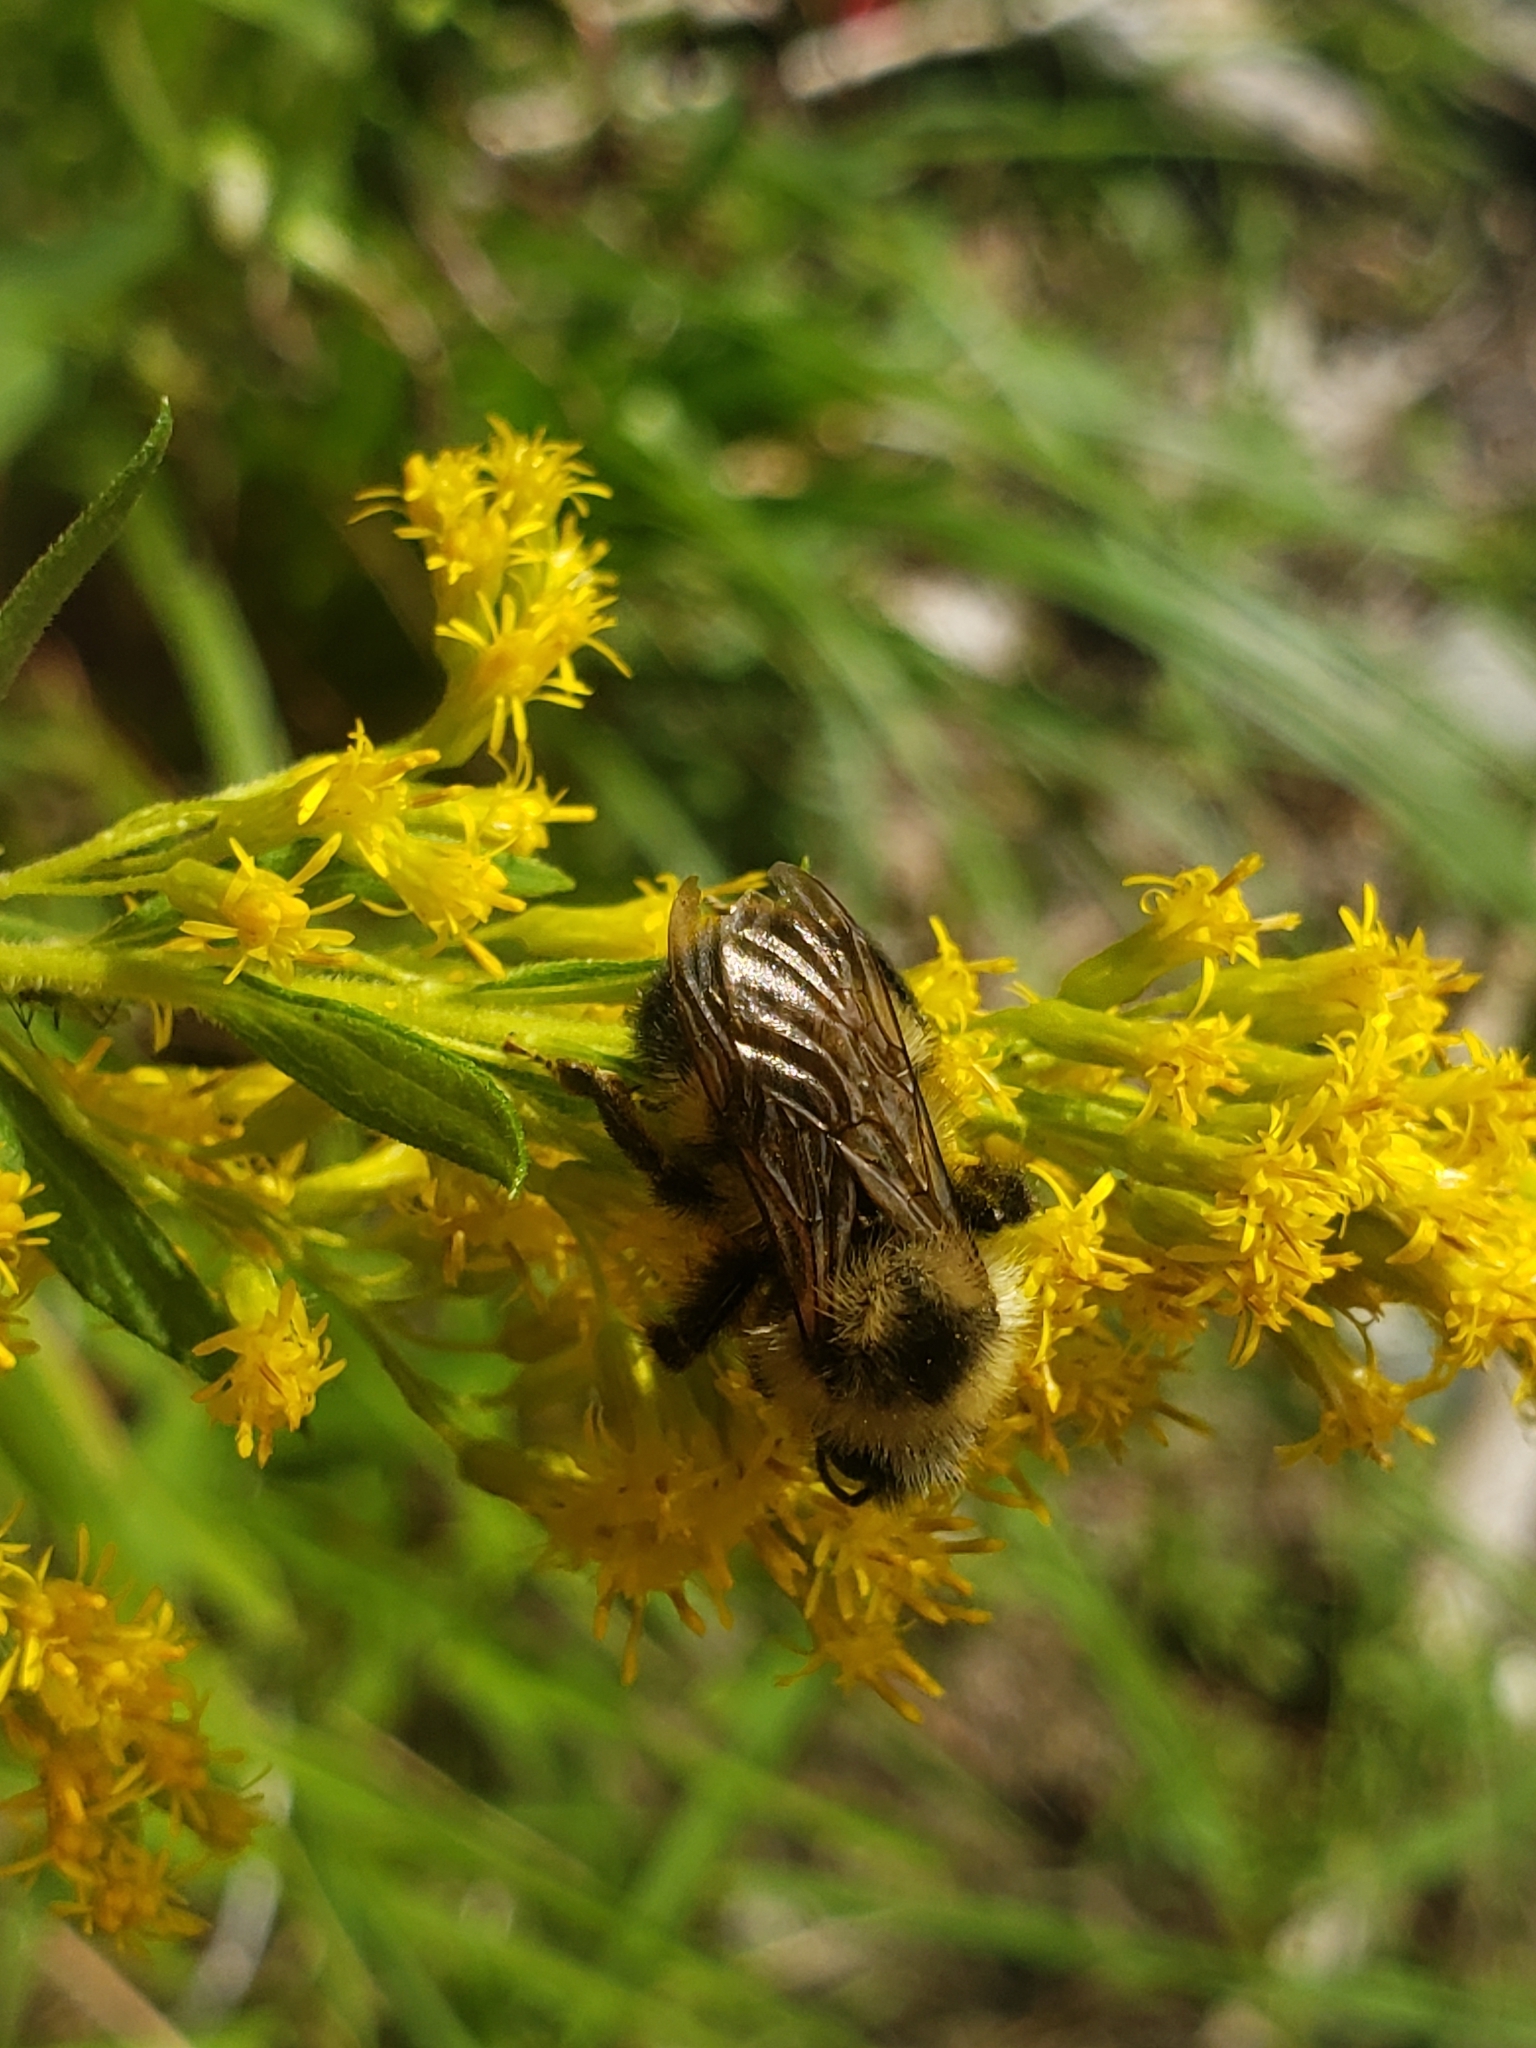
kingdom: Animalia
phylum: Arthropoda
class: Insecta
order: Hymenoptera
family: Apidae
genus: Bombus
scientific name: Bombus citrinus
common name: Lemon cuckoo bumble bee
